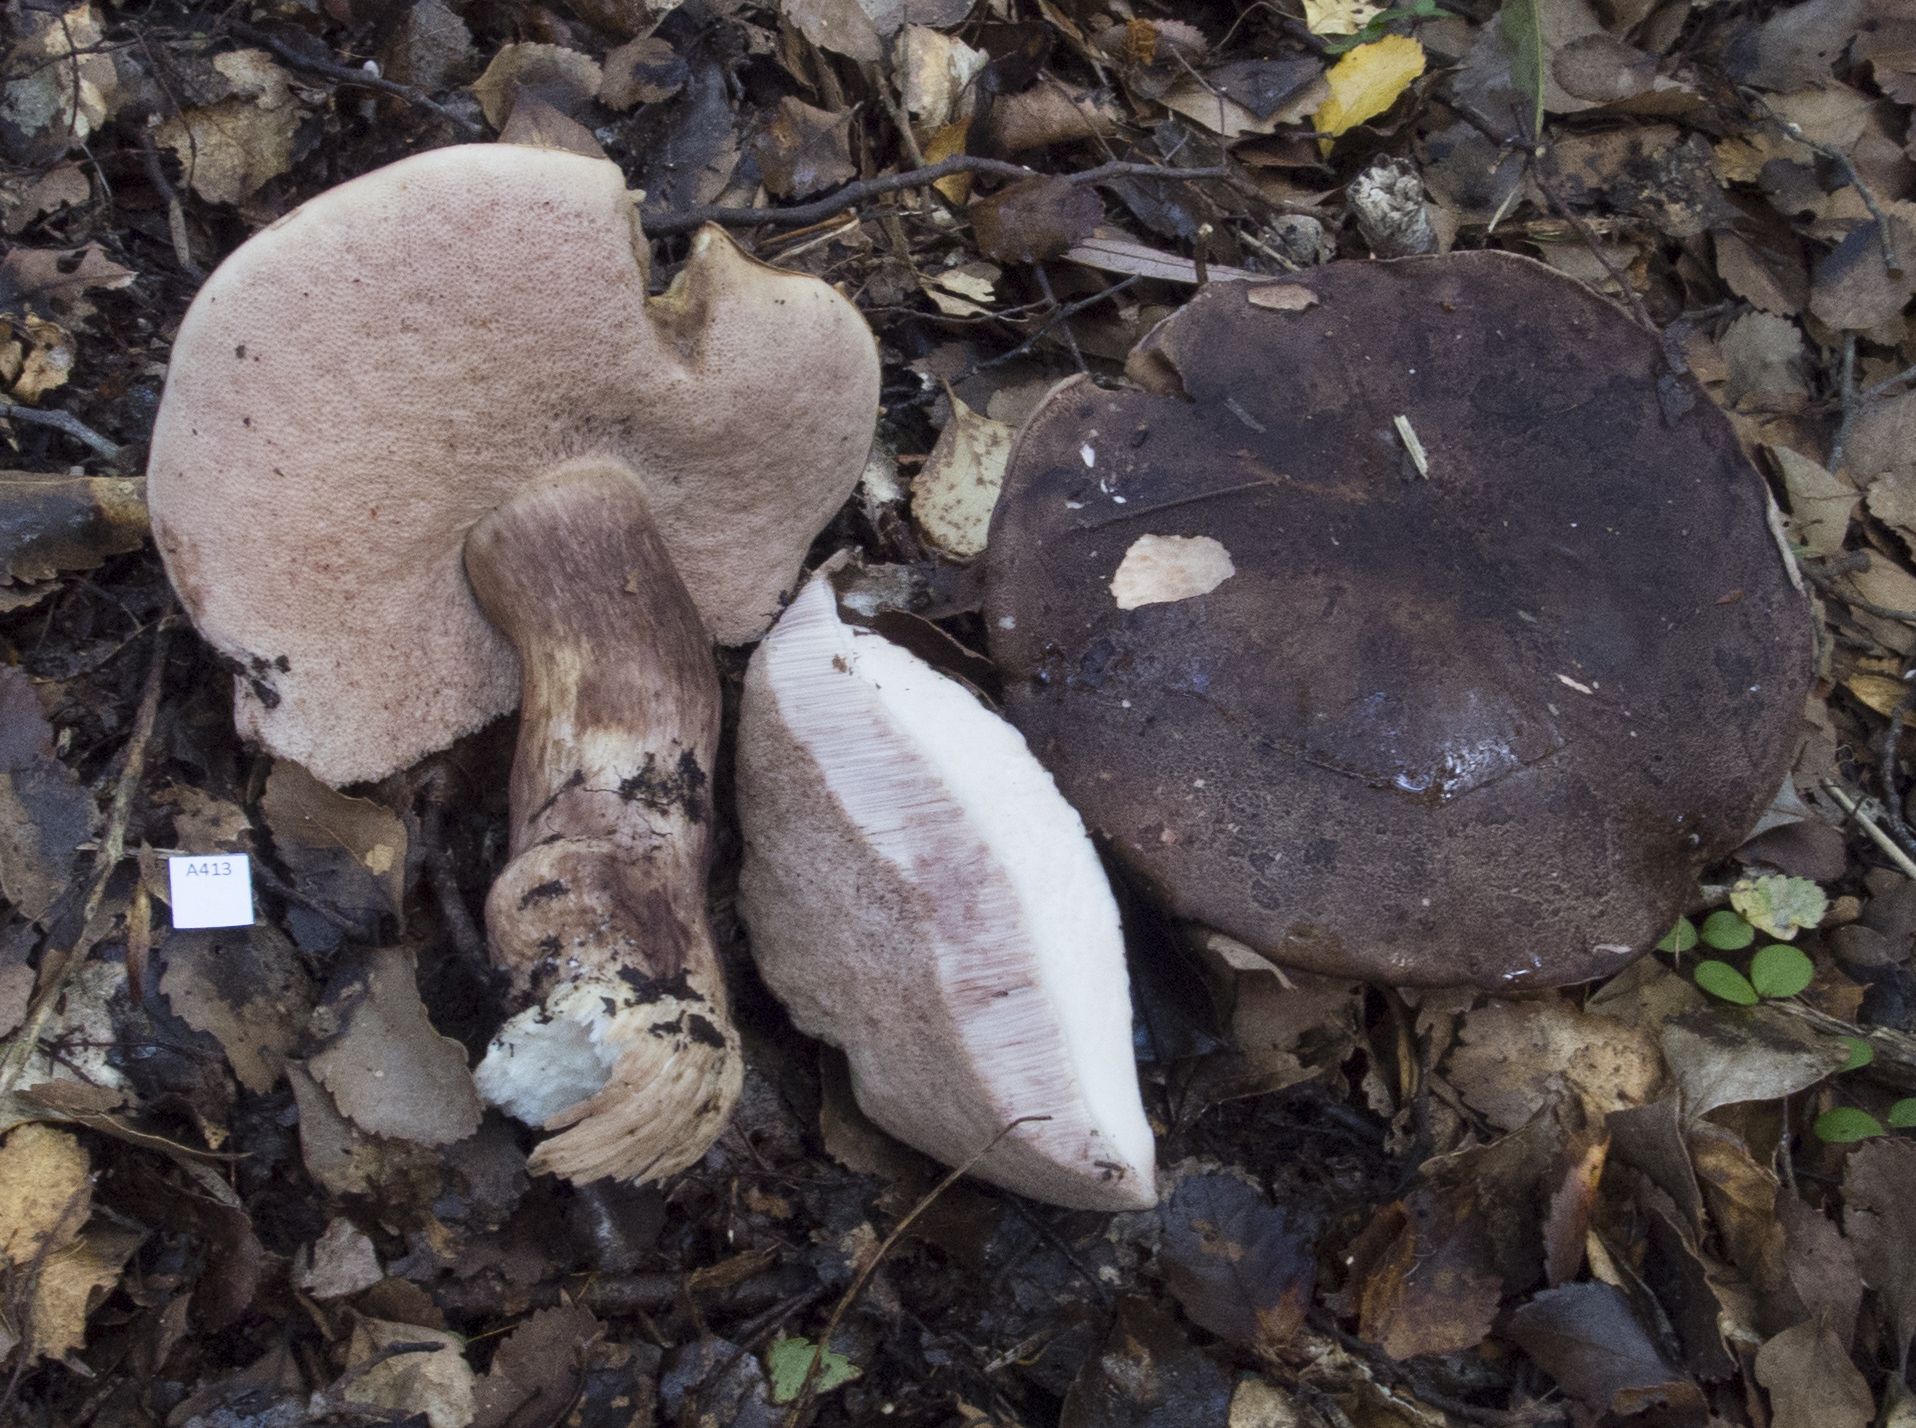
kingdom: Fungi
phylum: Basidiomycota
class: Agaricomycetes
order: Boletales
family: Boletaceae
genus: Porphyrellus
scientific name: Porphyrellus formosus
